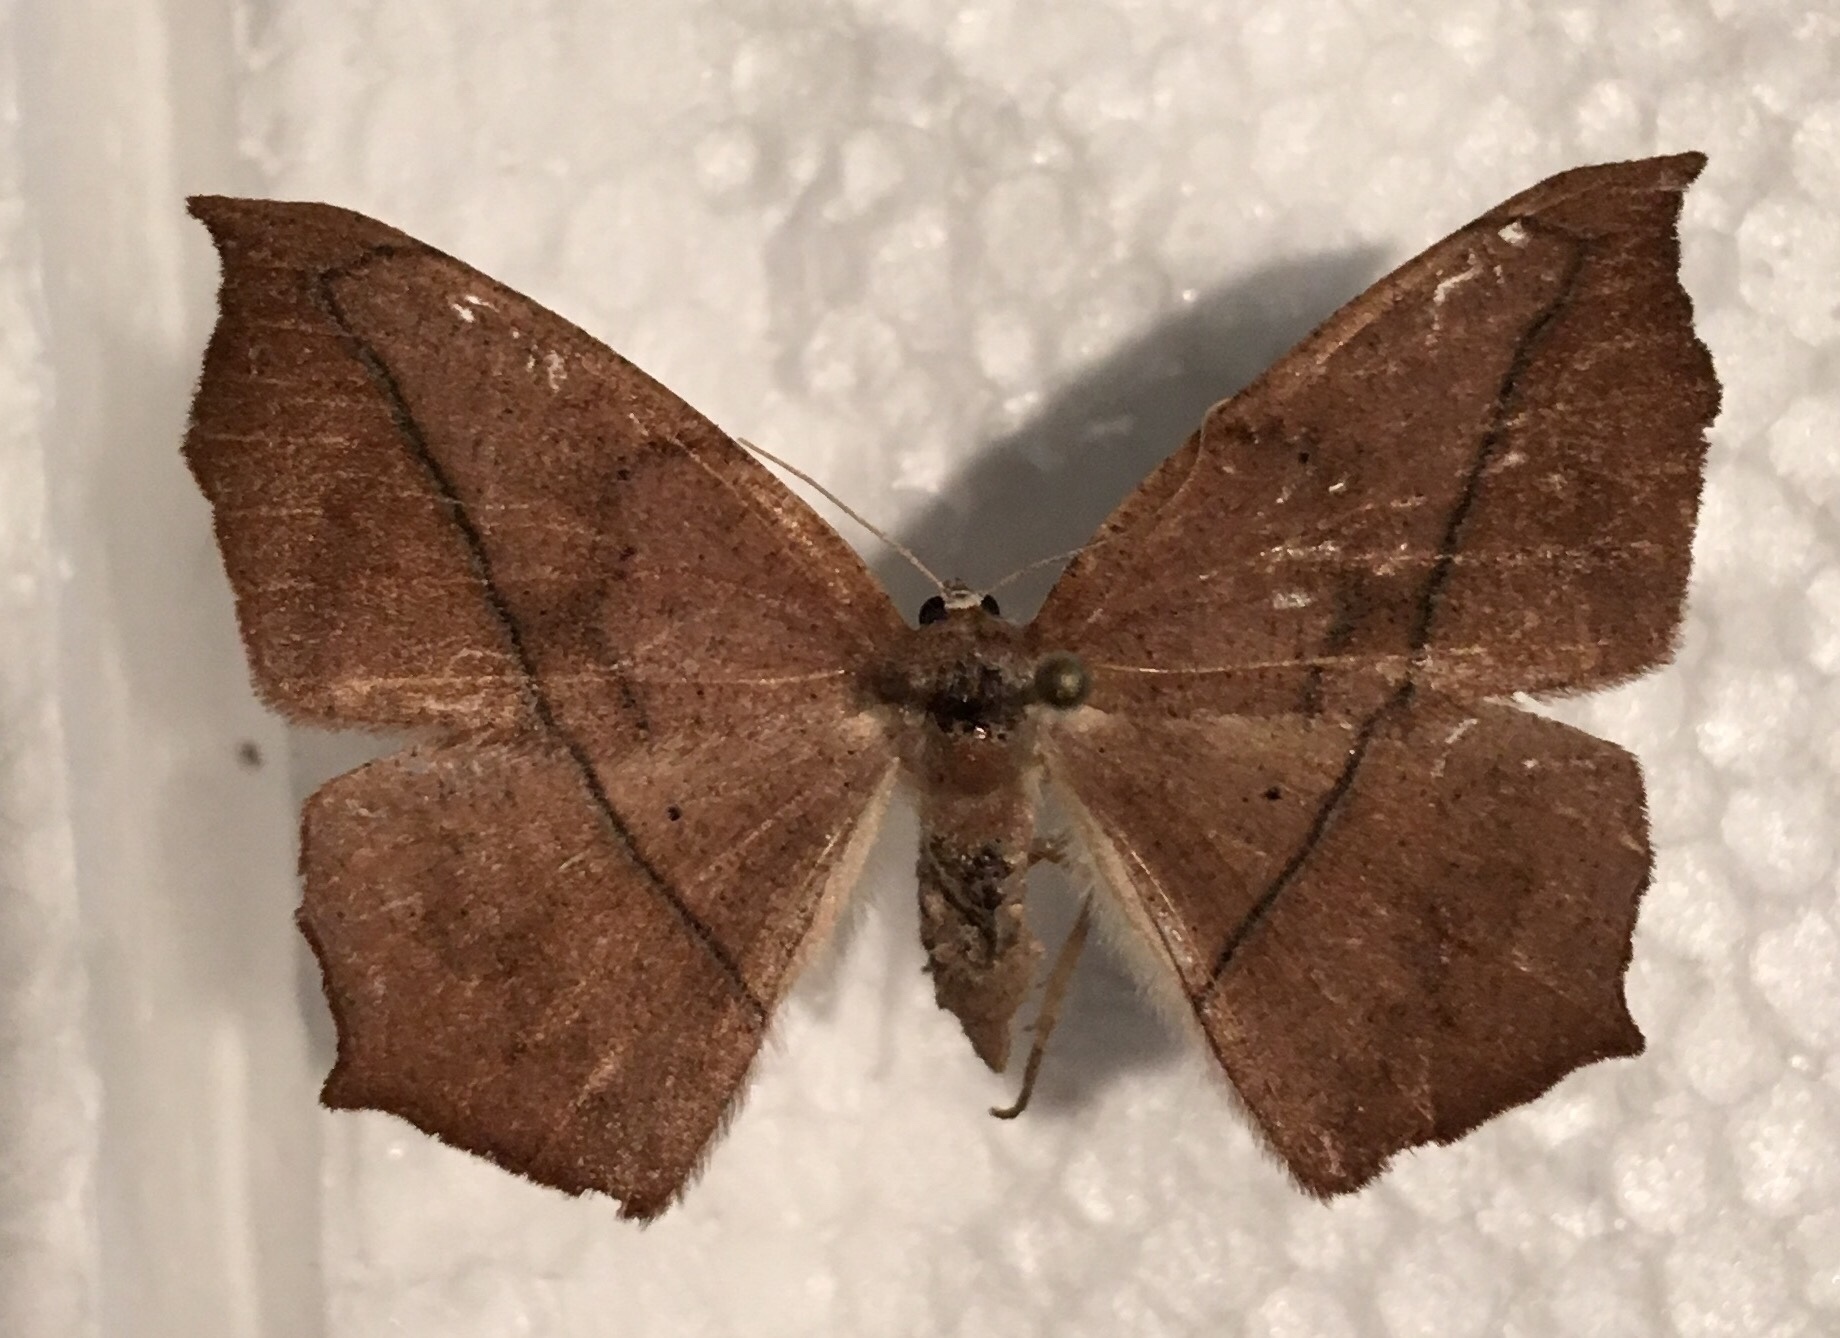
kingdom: Animalia
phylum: Arthropoda
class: Insecta
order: Lepidoptera
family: Geometridae
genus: Prochoerodes
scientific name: Prochoerodes lineola
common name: Large maple spanworm
